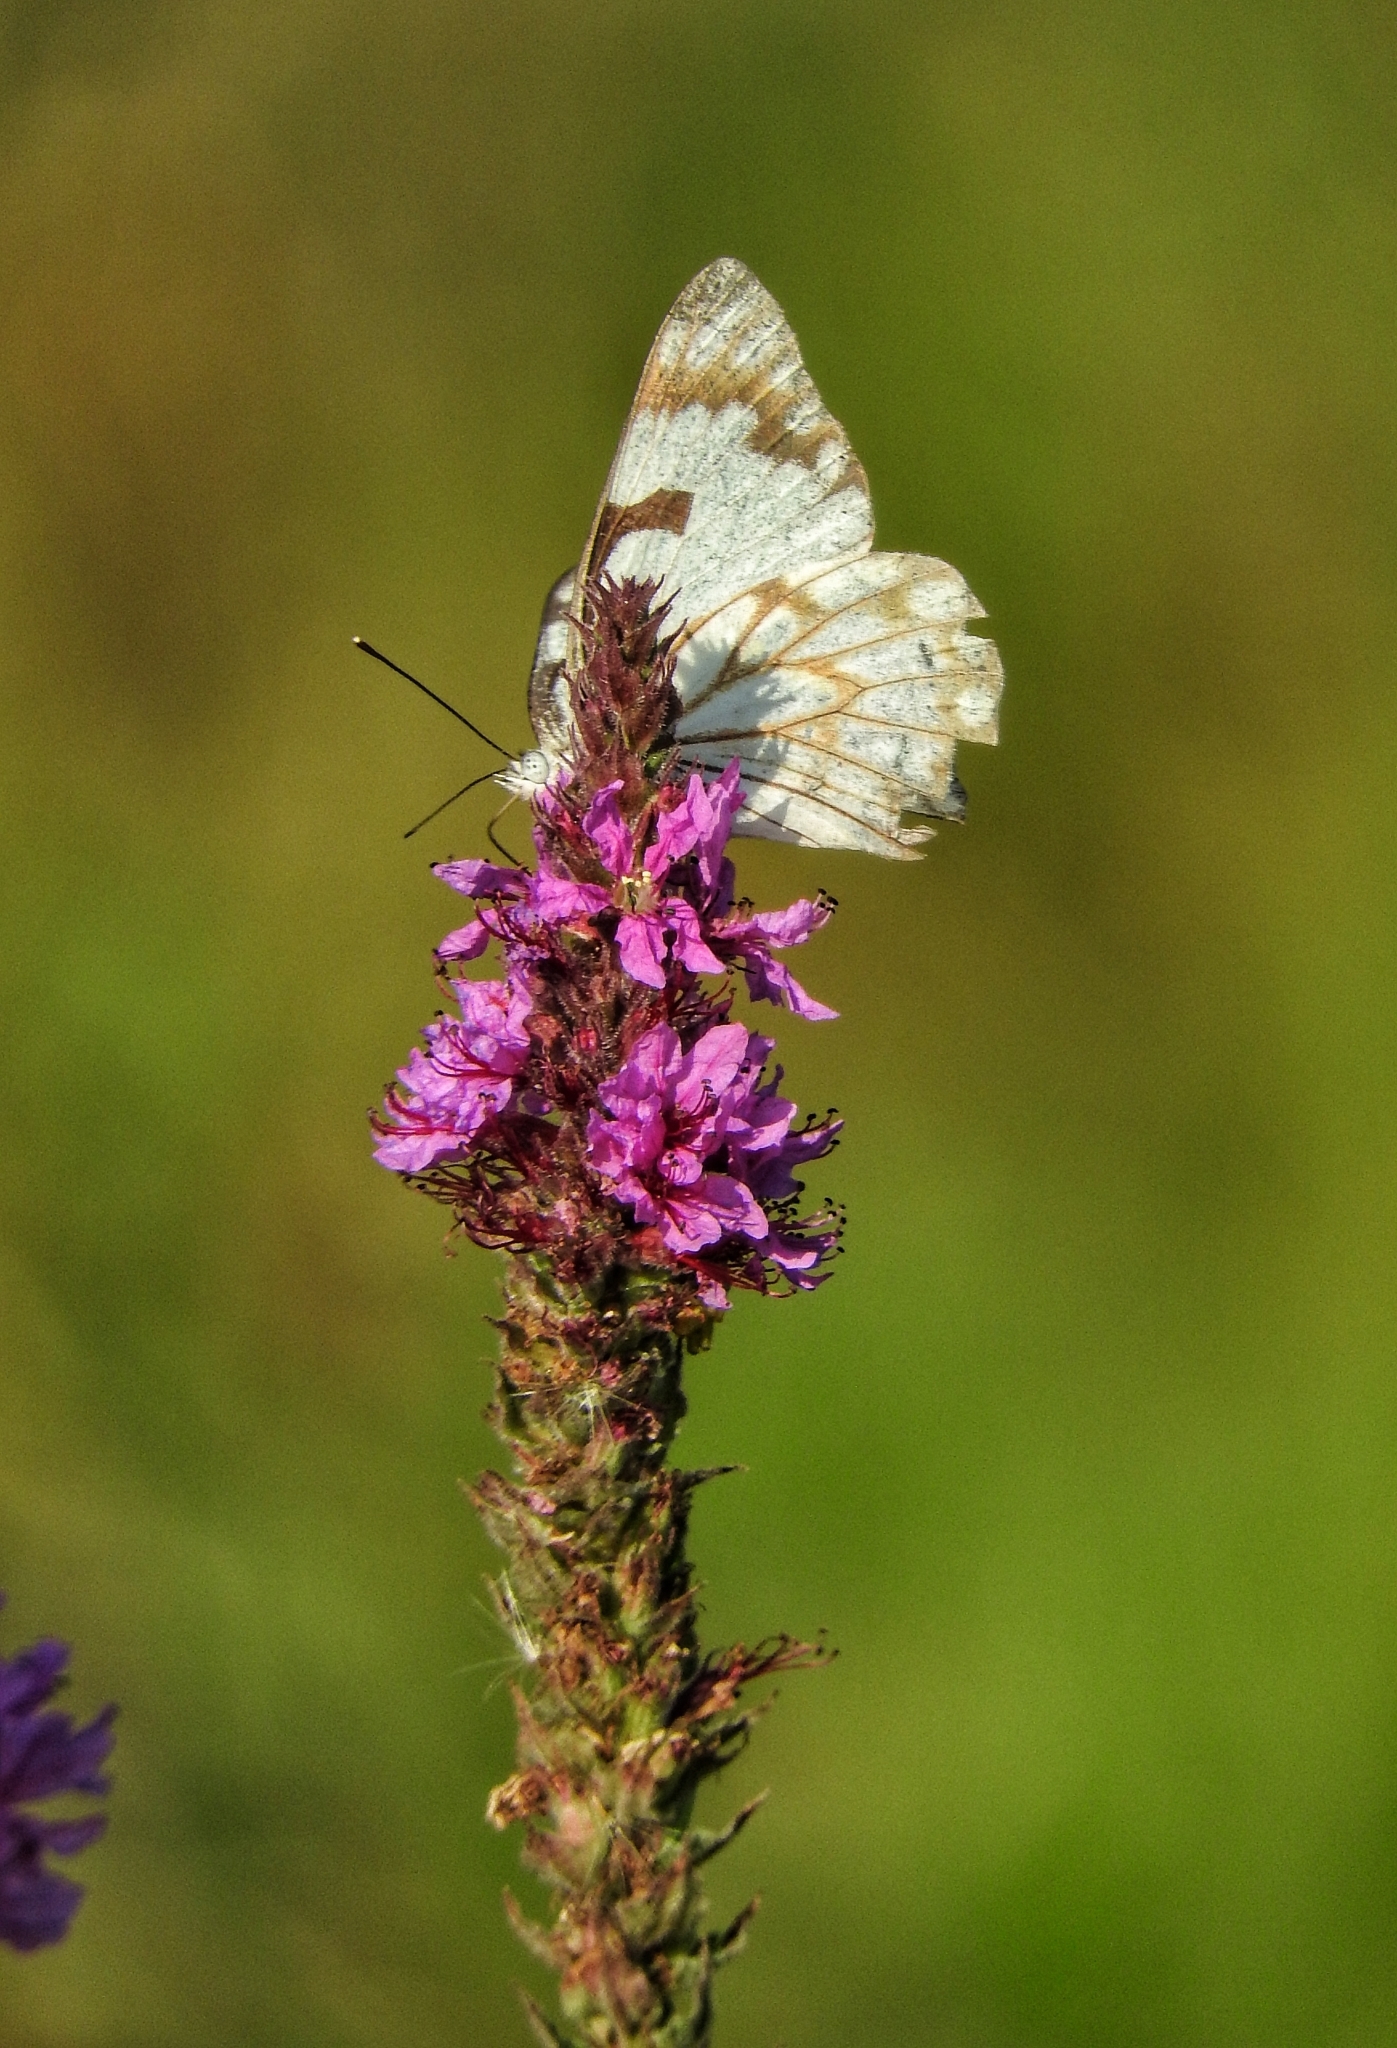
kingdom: Animalia
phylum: Arthropoda
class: Insecta
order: Lepidoptera
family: Pieridae
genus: Belenois
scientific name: Belenois aurota
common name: Brown-veined white
